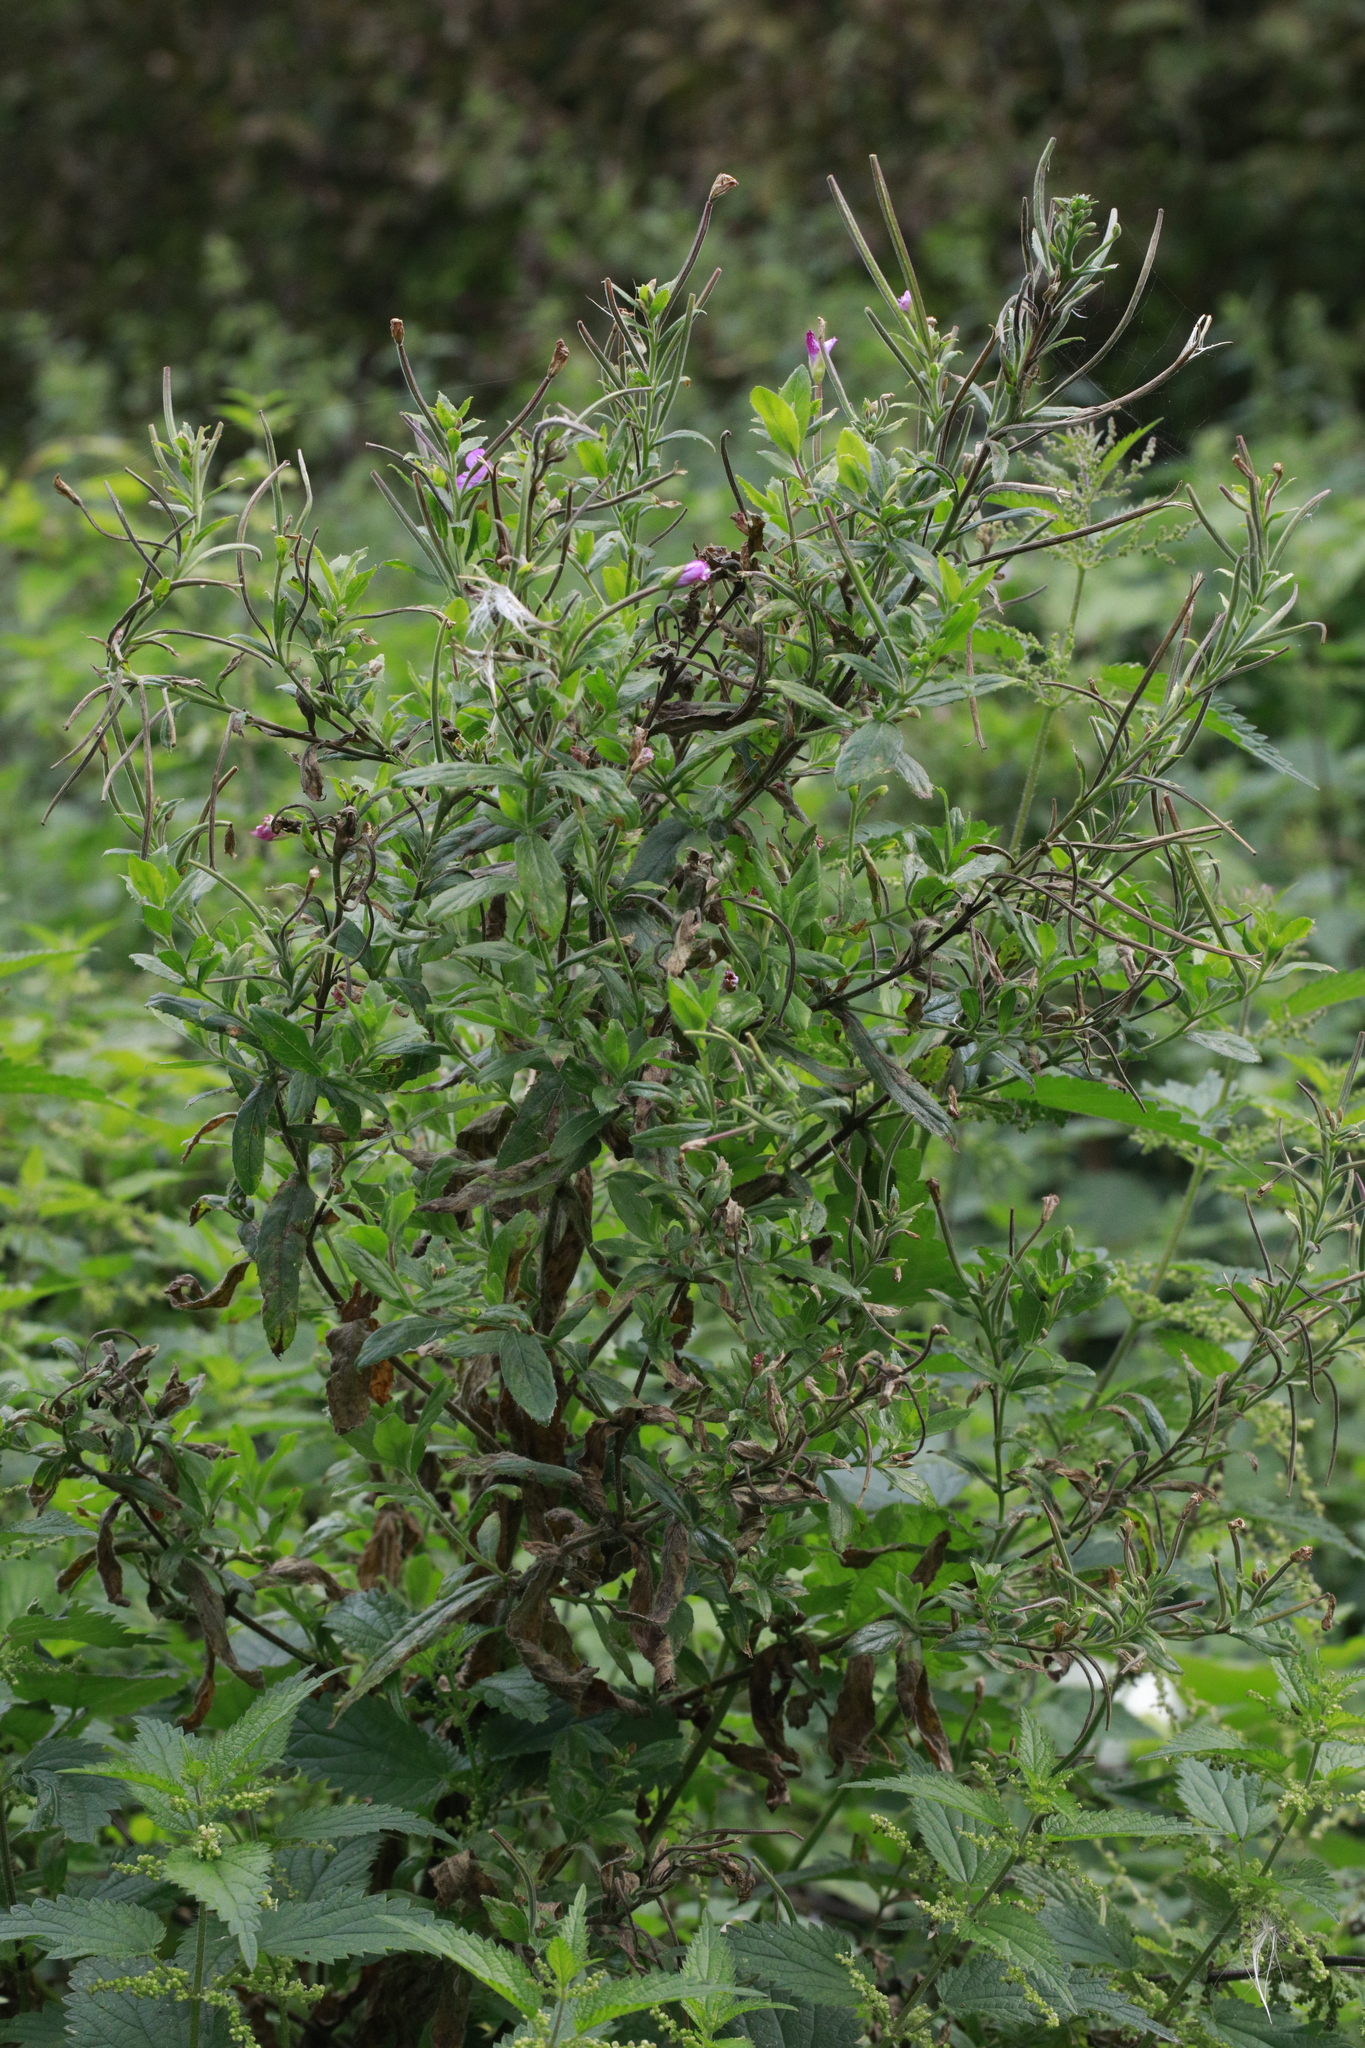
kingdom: Plantae
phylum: Tracheophyta
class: Magnoliopsida
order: Myrtales
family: Onagraceae
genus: Epilobium
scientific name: Epilobium hirsutum
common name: Great willowherb
